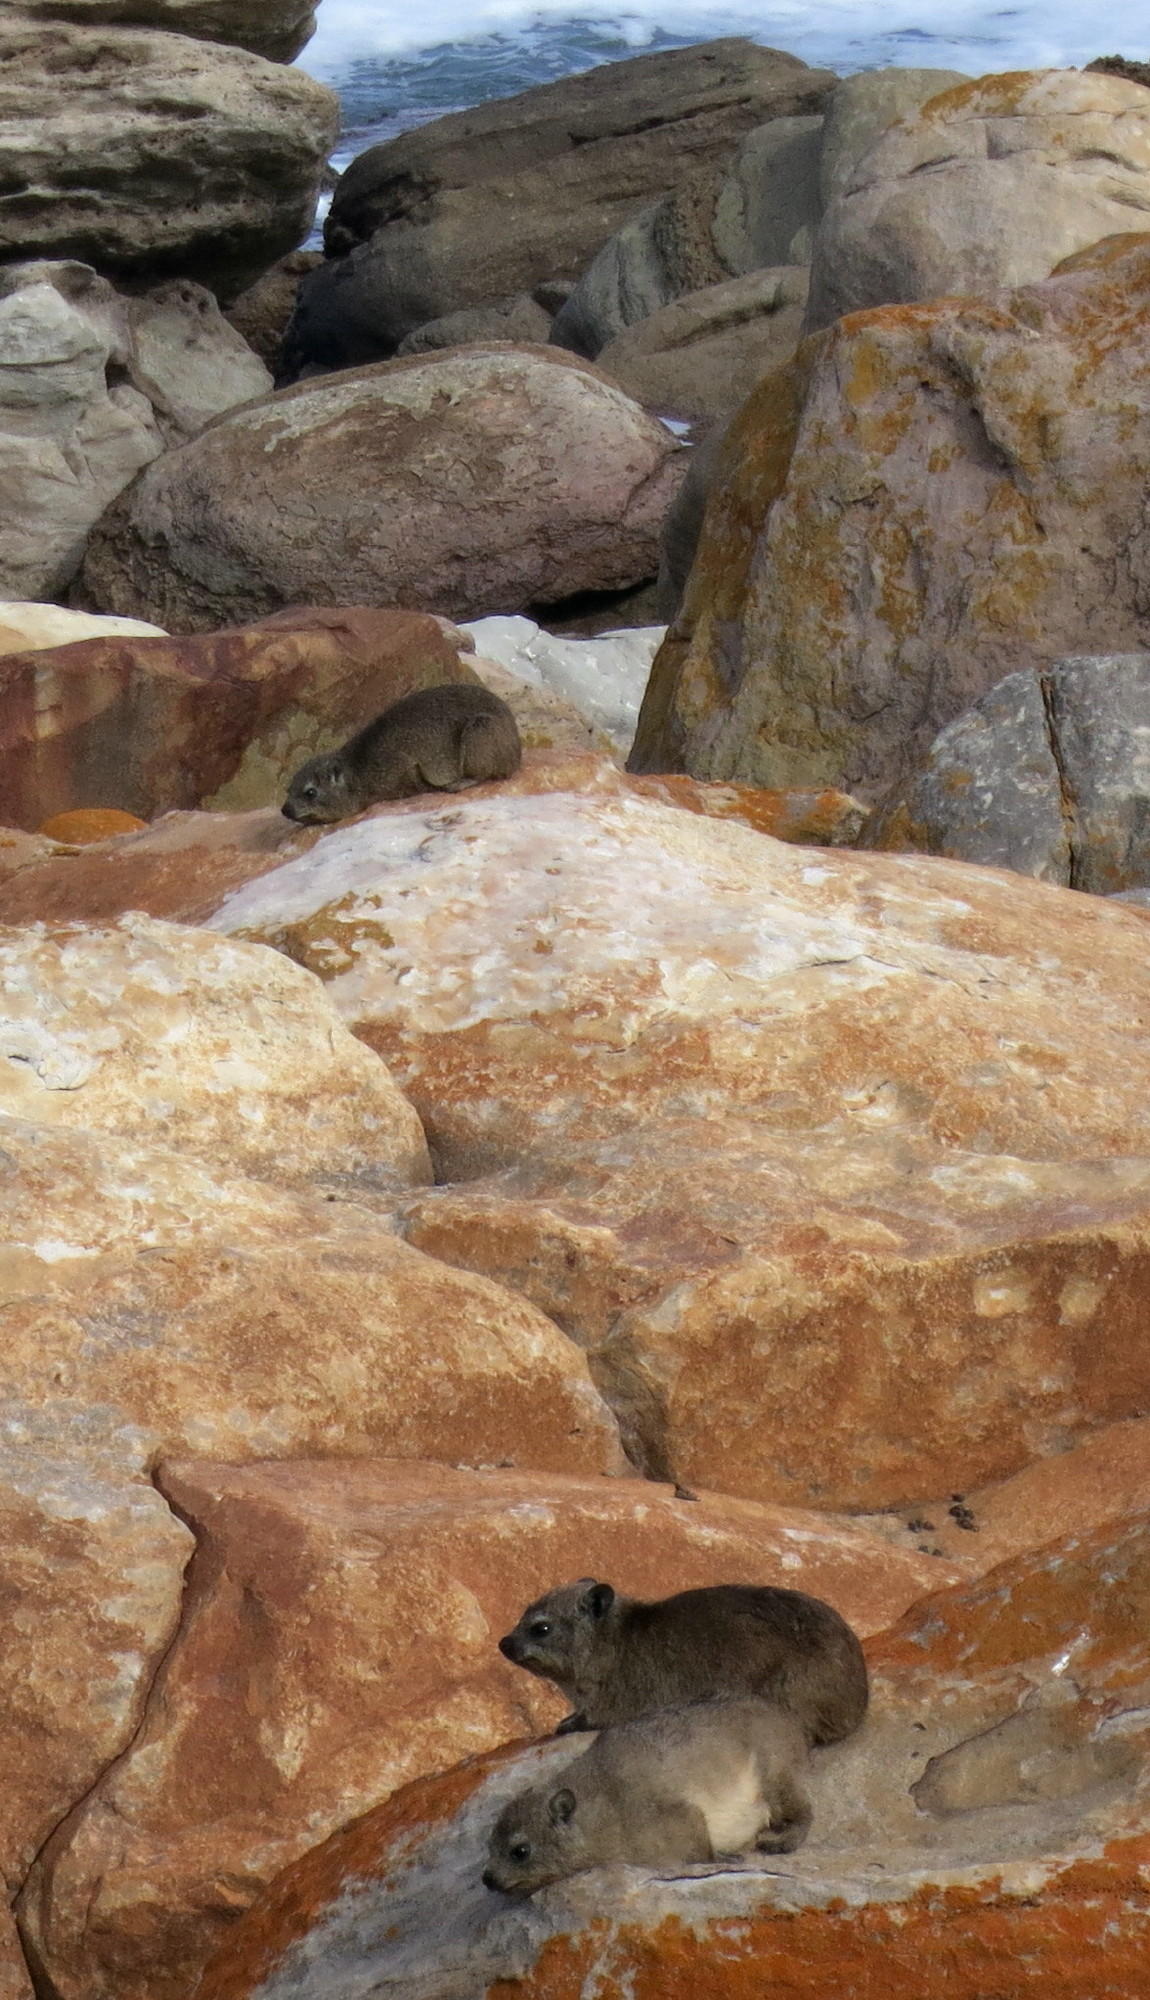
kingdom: Animalia
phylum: Chordata
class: Mammalia
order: Hyracoidea
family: Procaviidae
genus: Procavia
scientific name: Procavia capensis
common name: Rock hyrax
